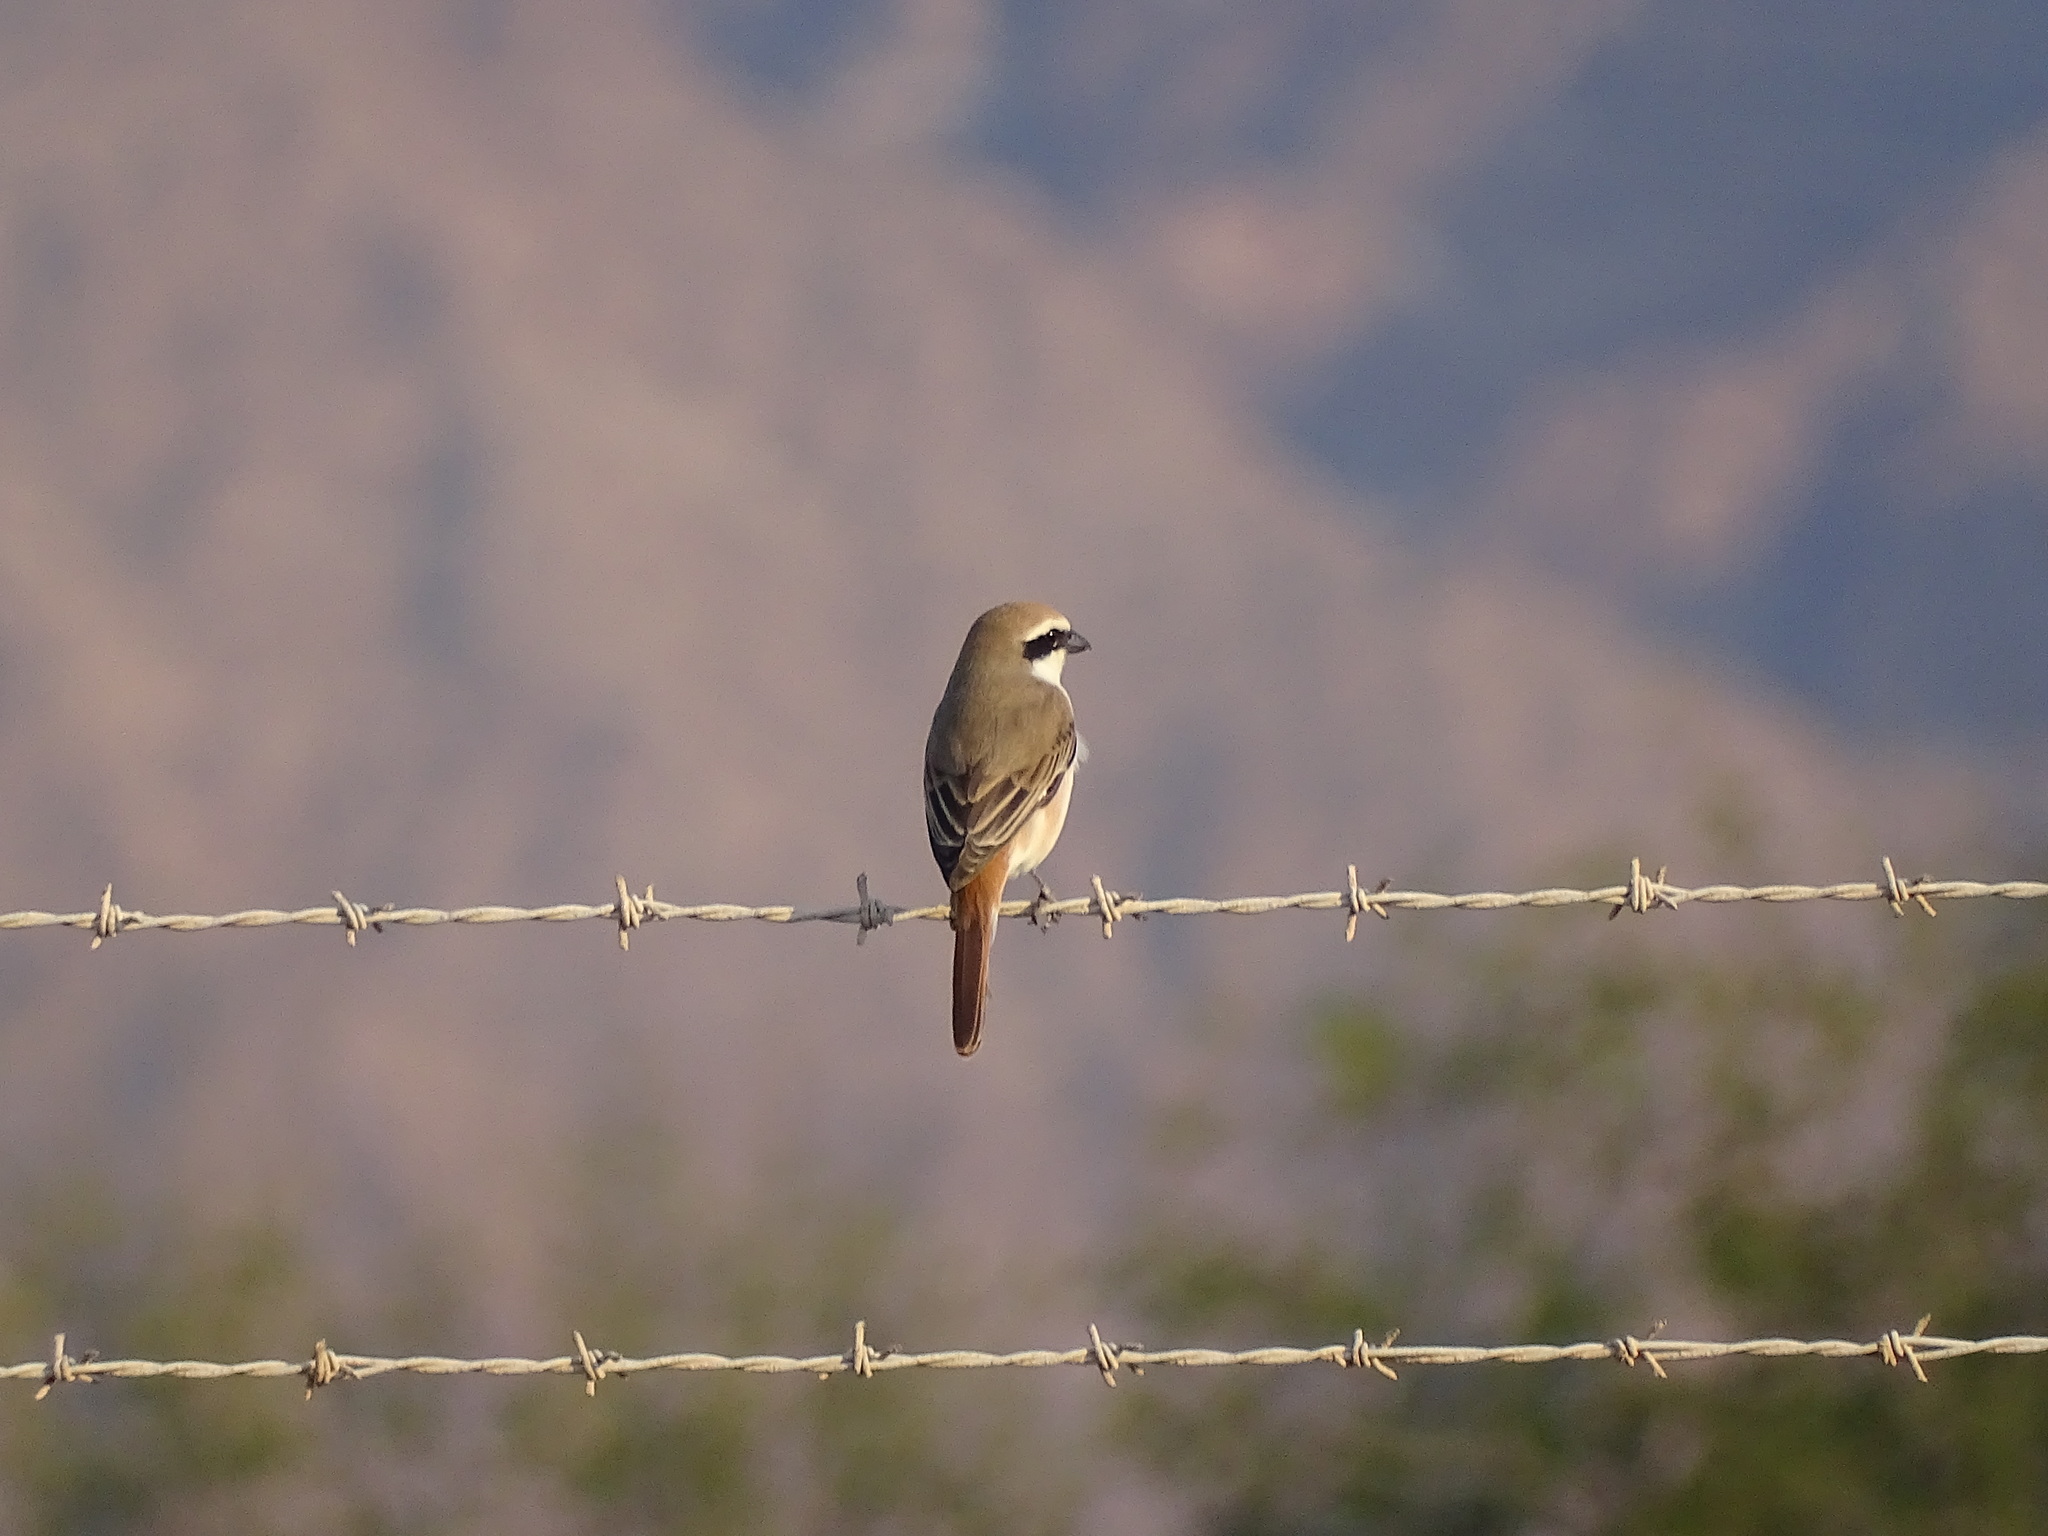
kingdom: Animalia
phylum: Chordata
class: Aves
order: Passeriformes
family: Laniidae
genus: Lanius
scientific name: Lanius phoenicuroides
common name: Red-tailed shrike
